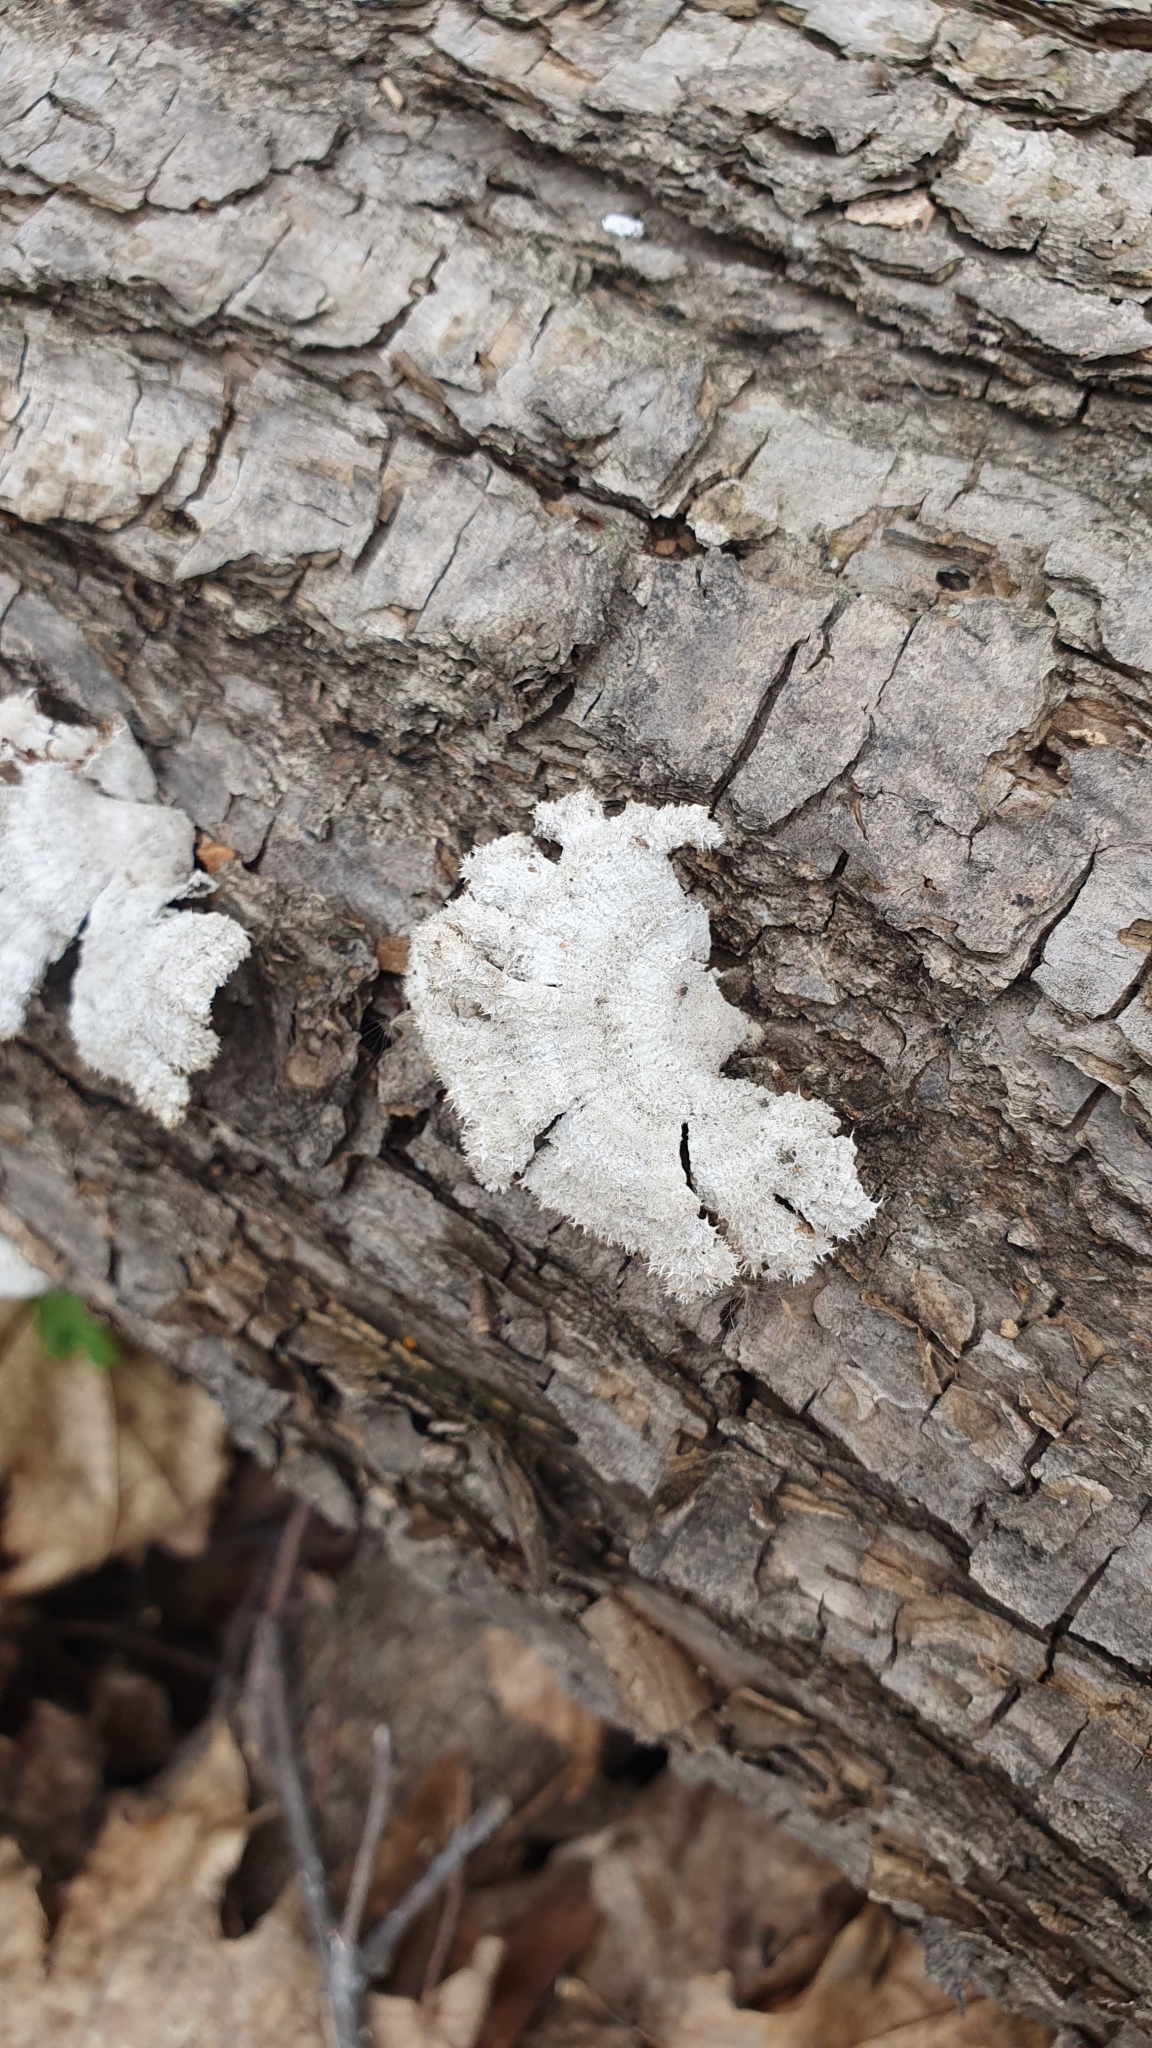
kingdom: Fungi
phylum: Basidiomycota
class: Agaricomycetes
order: Agaricales
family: Schizophyllaceae
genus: Schizophyllum
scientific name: Schizophyllum commune
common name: Common porecrust
